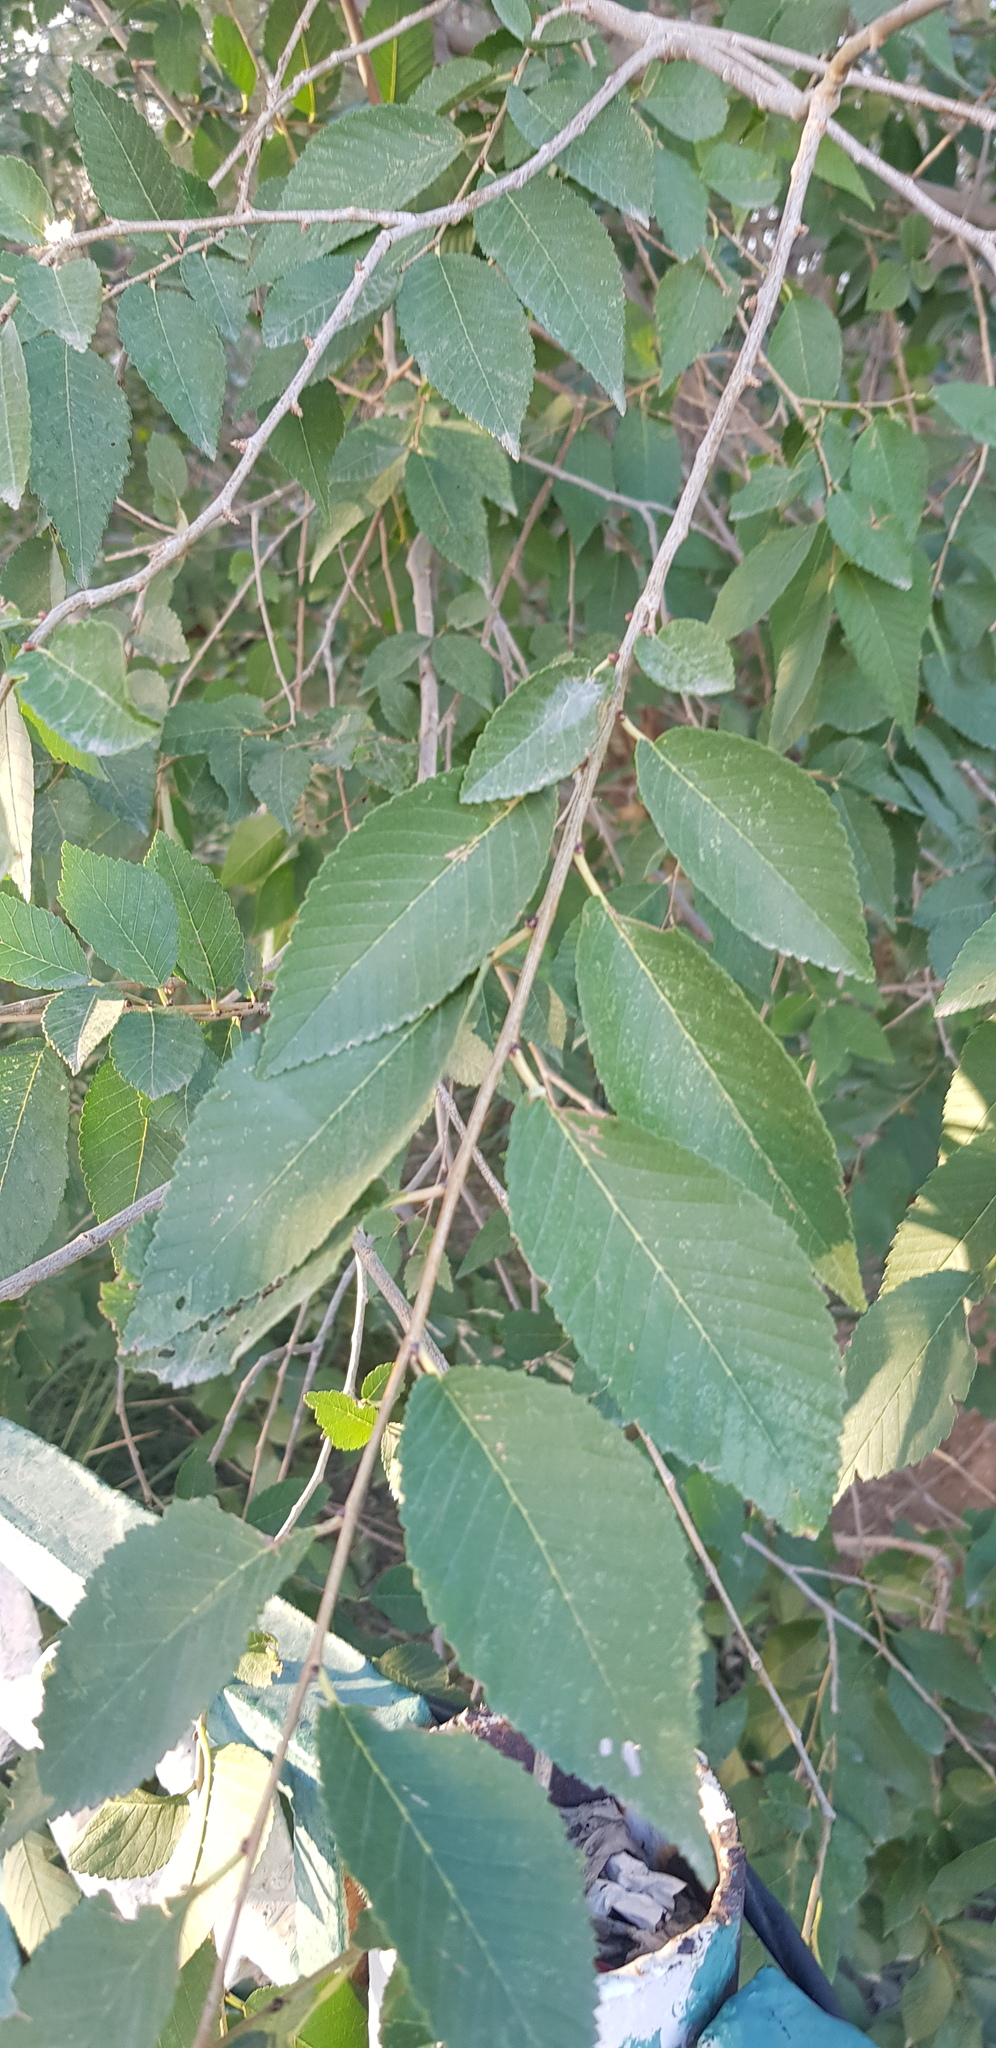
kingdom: Plantae
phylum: Tracheophyta
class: Magnoliopsida
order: Rosales
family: Ulmaceae
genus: Ulmus
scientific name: Ulmus pumila
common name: Siberian elm
